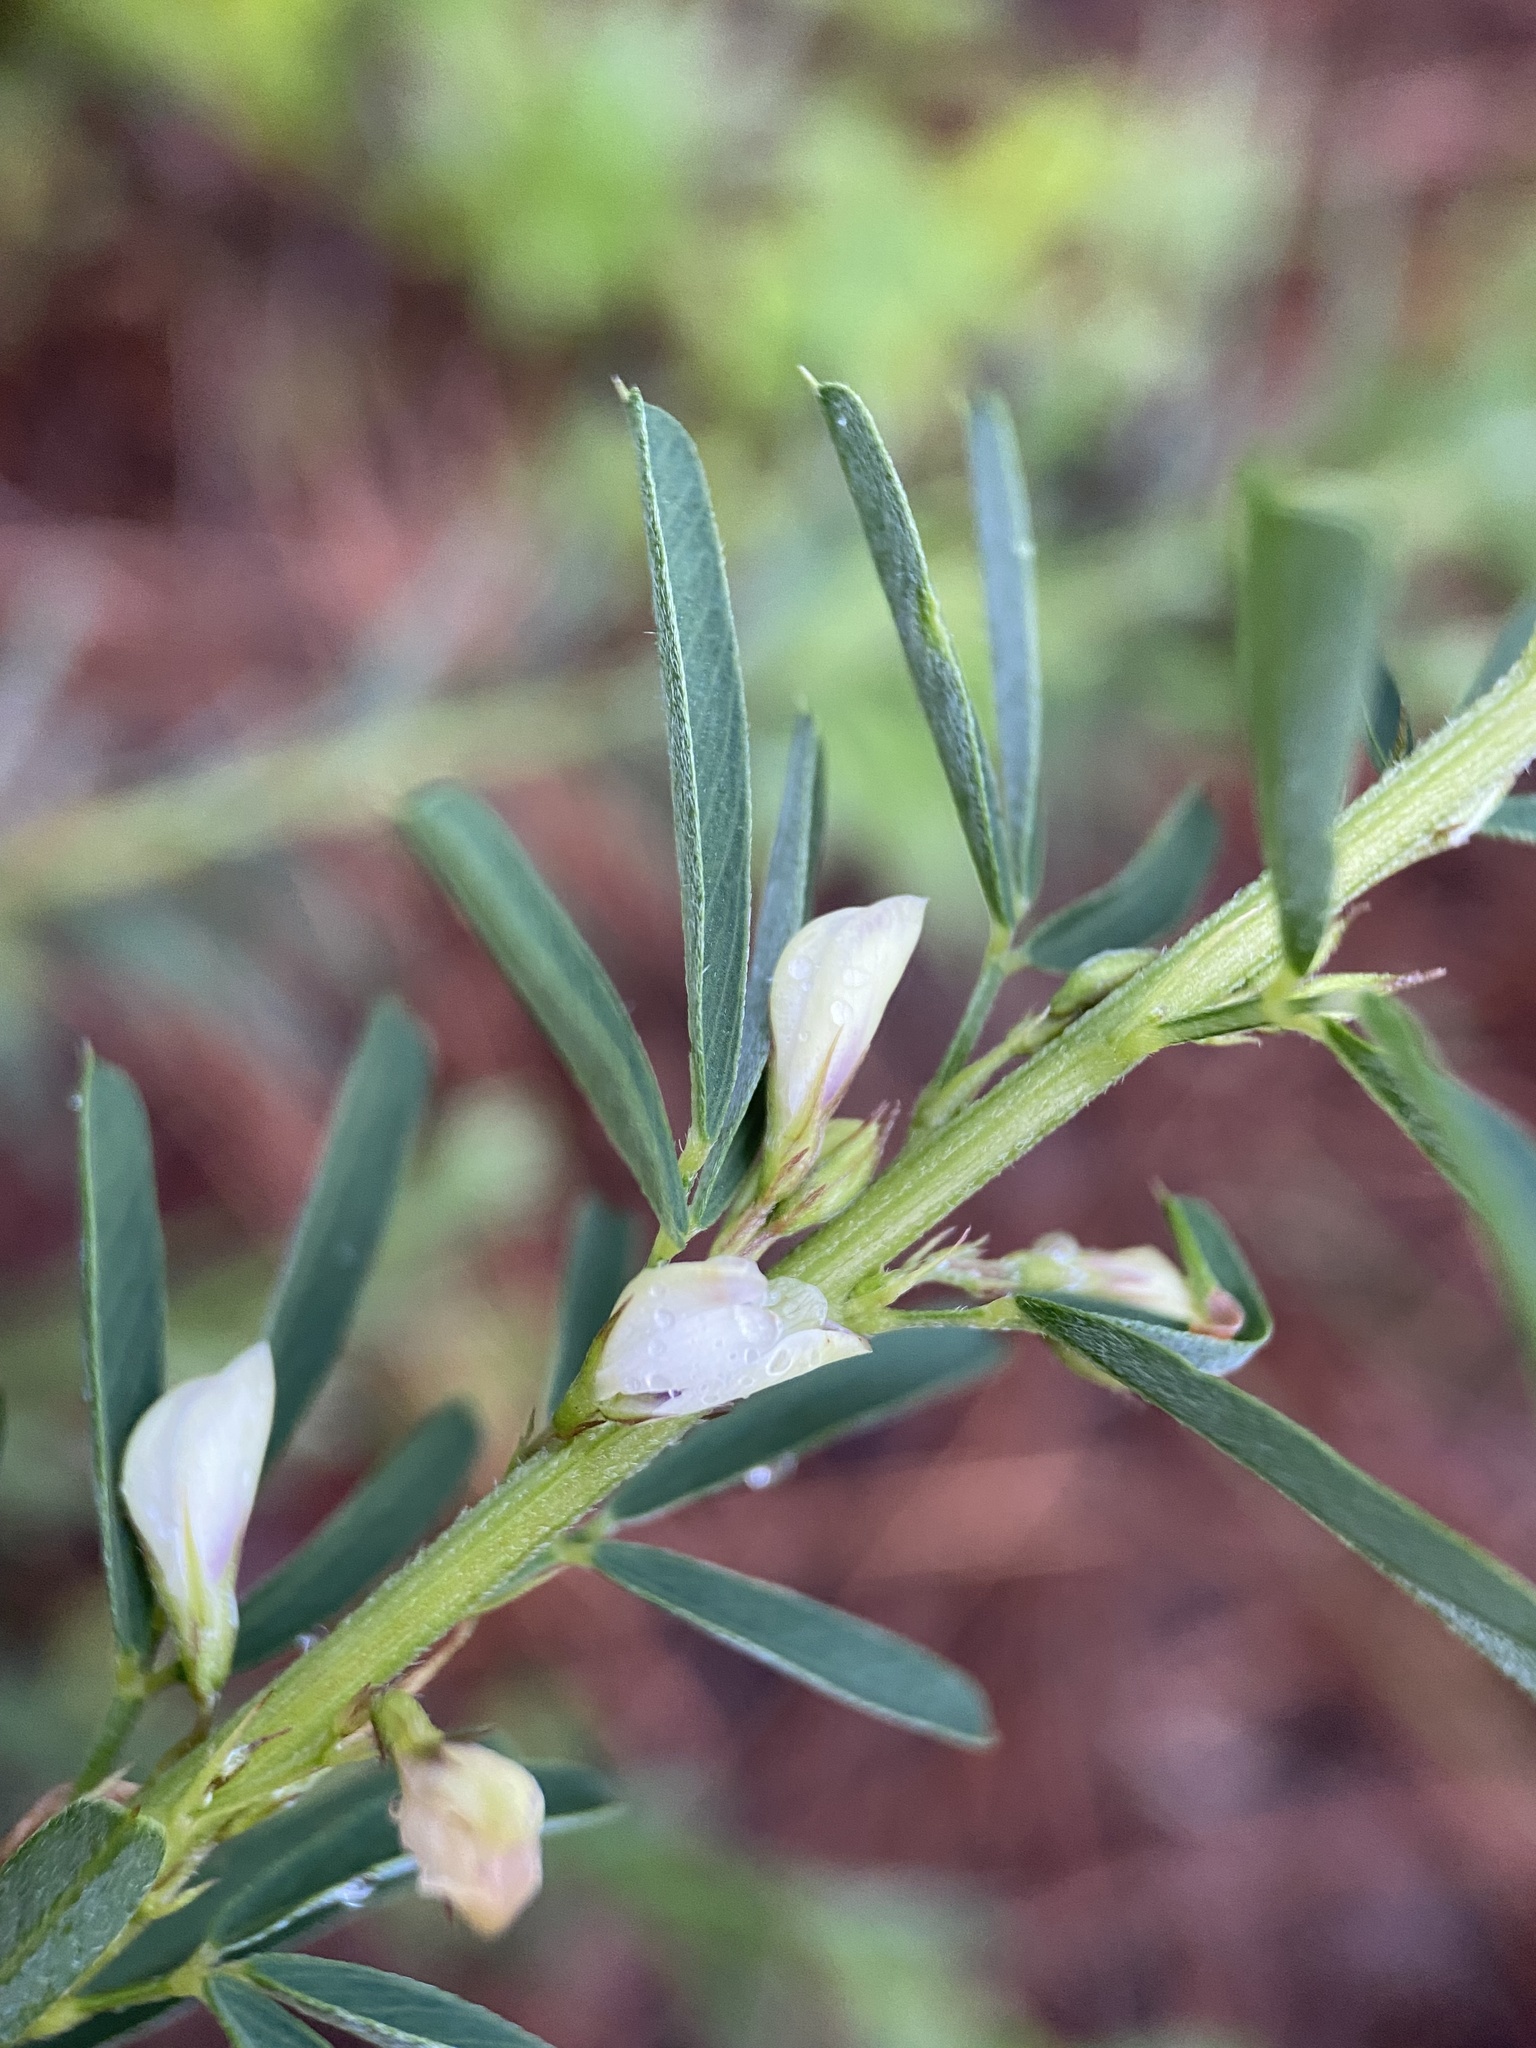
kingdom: Plantae
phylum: Tracheophyta
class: Magnoliopsida
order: Fabales
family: Fabaceae
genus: Lespedeza
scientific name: Lespedeza cuneata
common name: Chinese bush-clover
